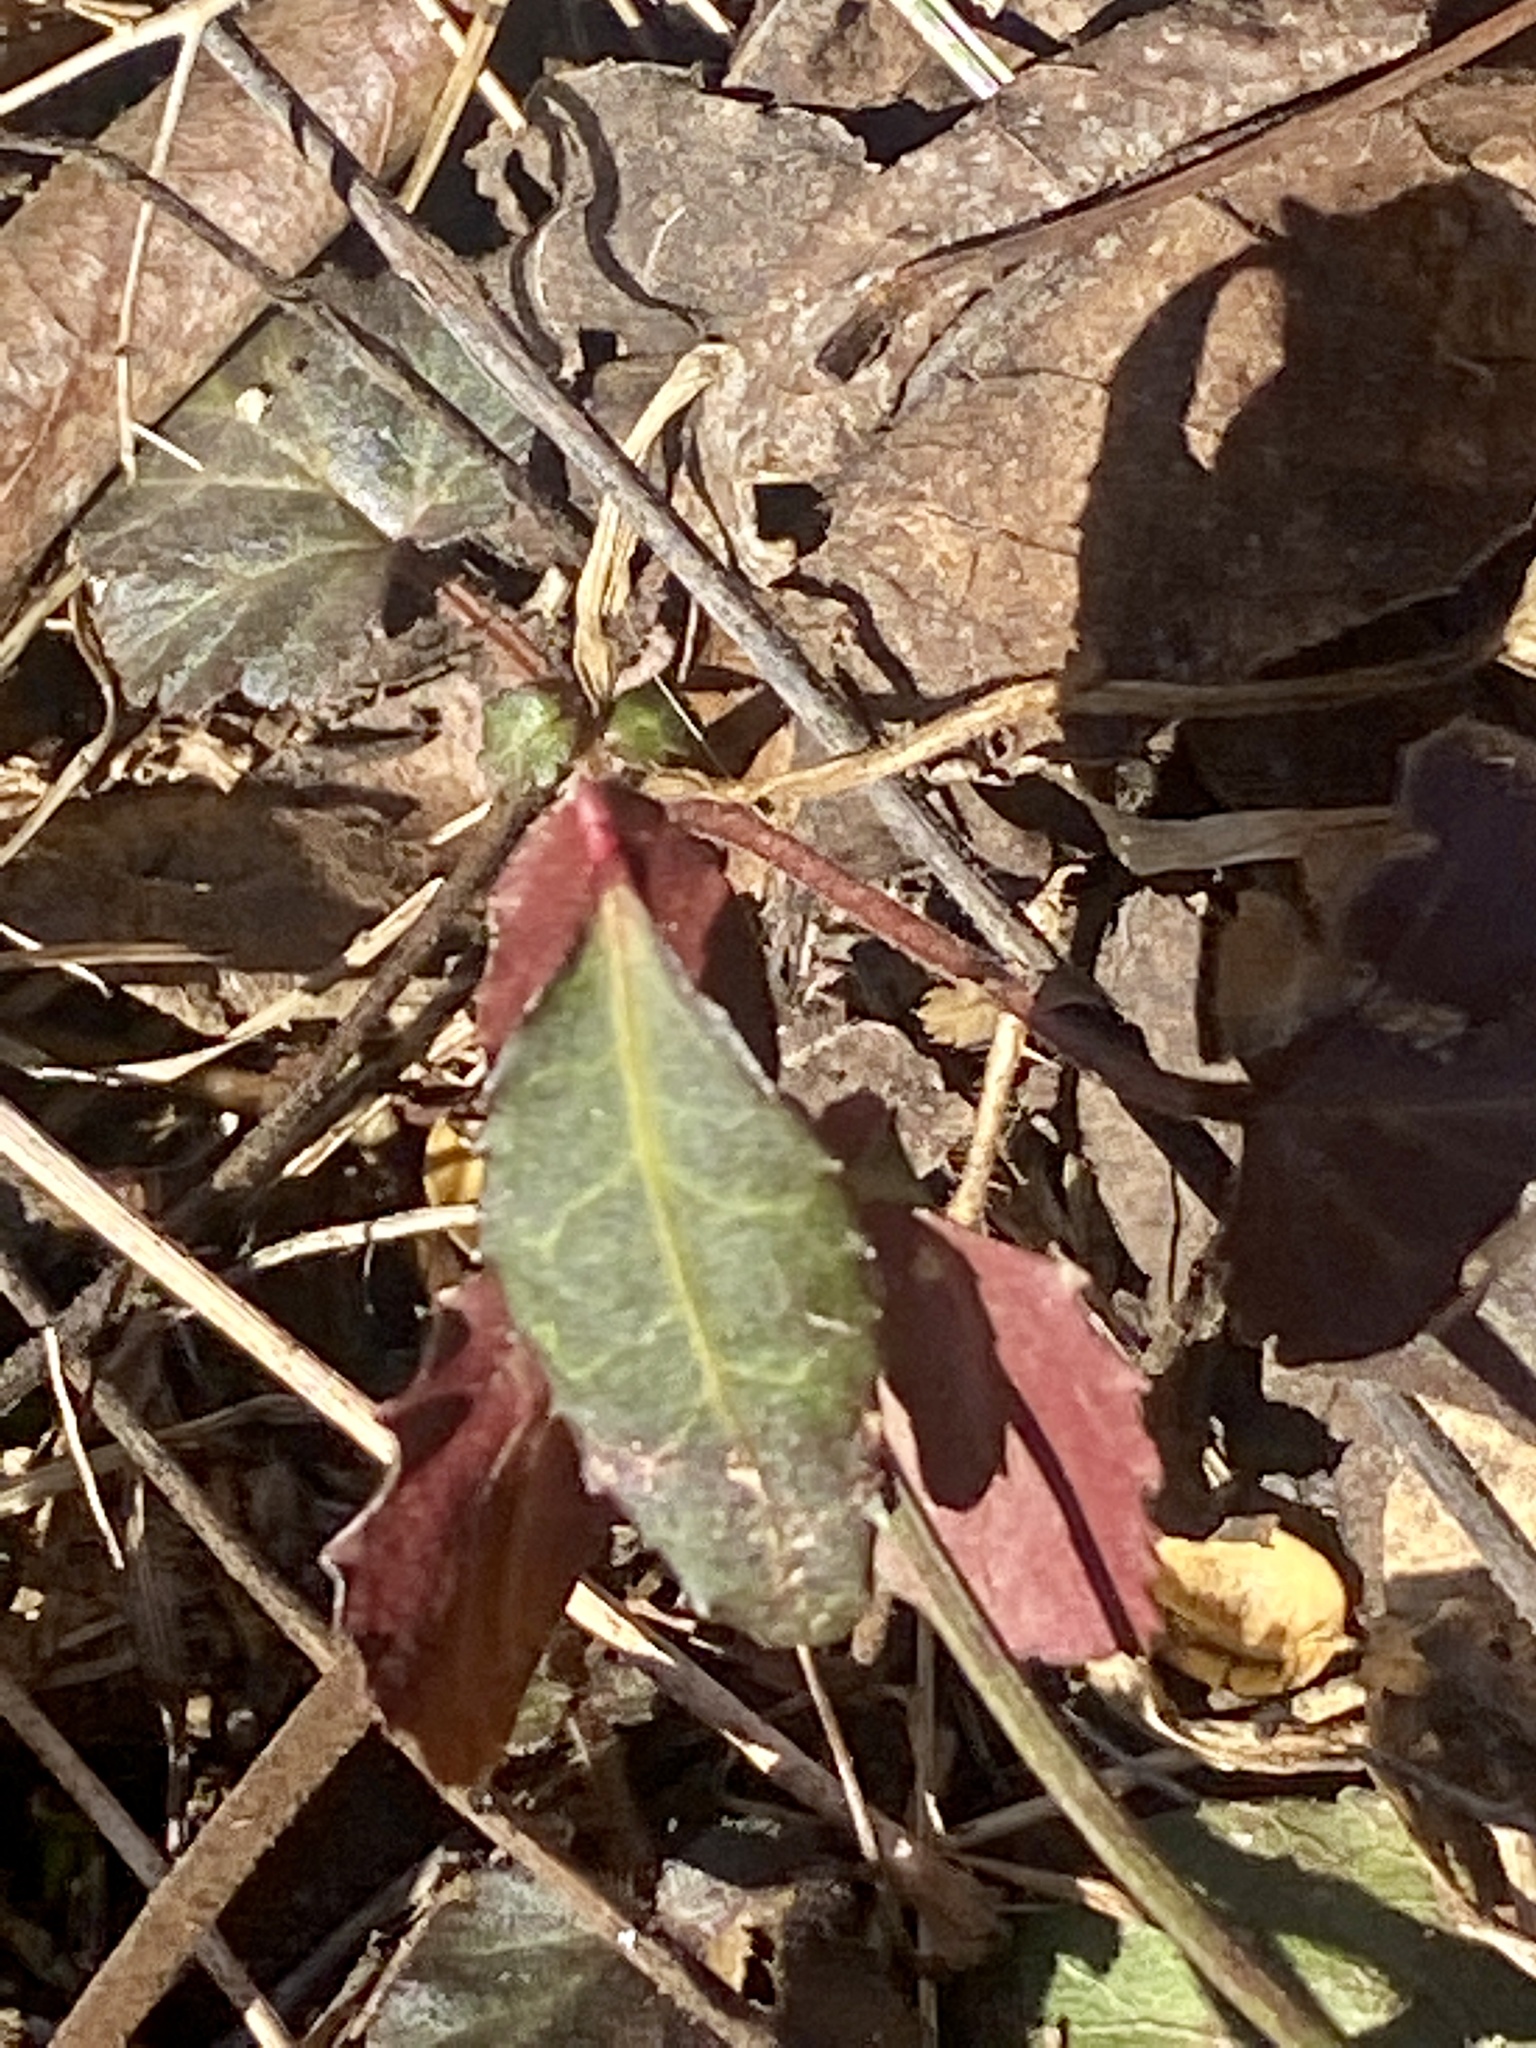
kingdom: Plantae
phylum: Tracheophyta
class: Magnoliopsida
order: Celastrales
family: Celastraceae
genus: Euonymus
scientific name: Euonymus fortunei
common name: Climbing euonymus
